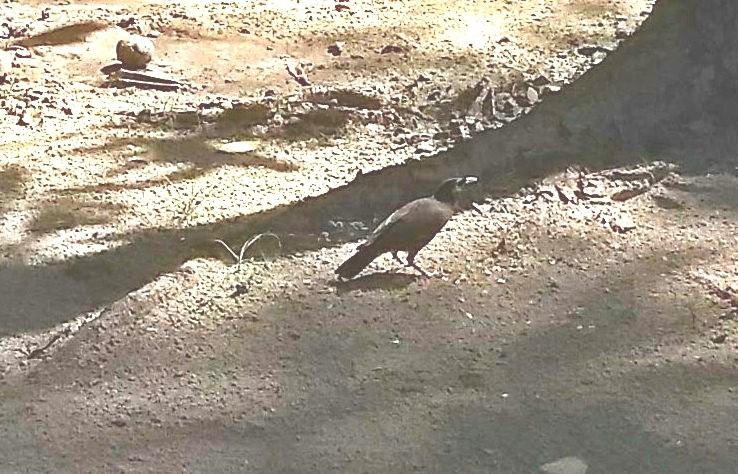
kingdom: Animalia
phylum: Chordata
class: Aves
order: Passeriformes
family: Sturnidae
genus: Acridotheres
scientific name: Acridotheres tristis
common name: Common myna
